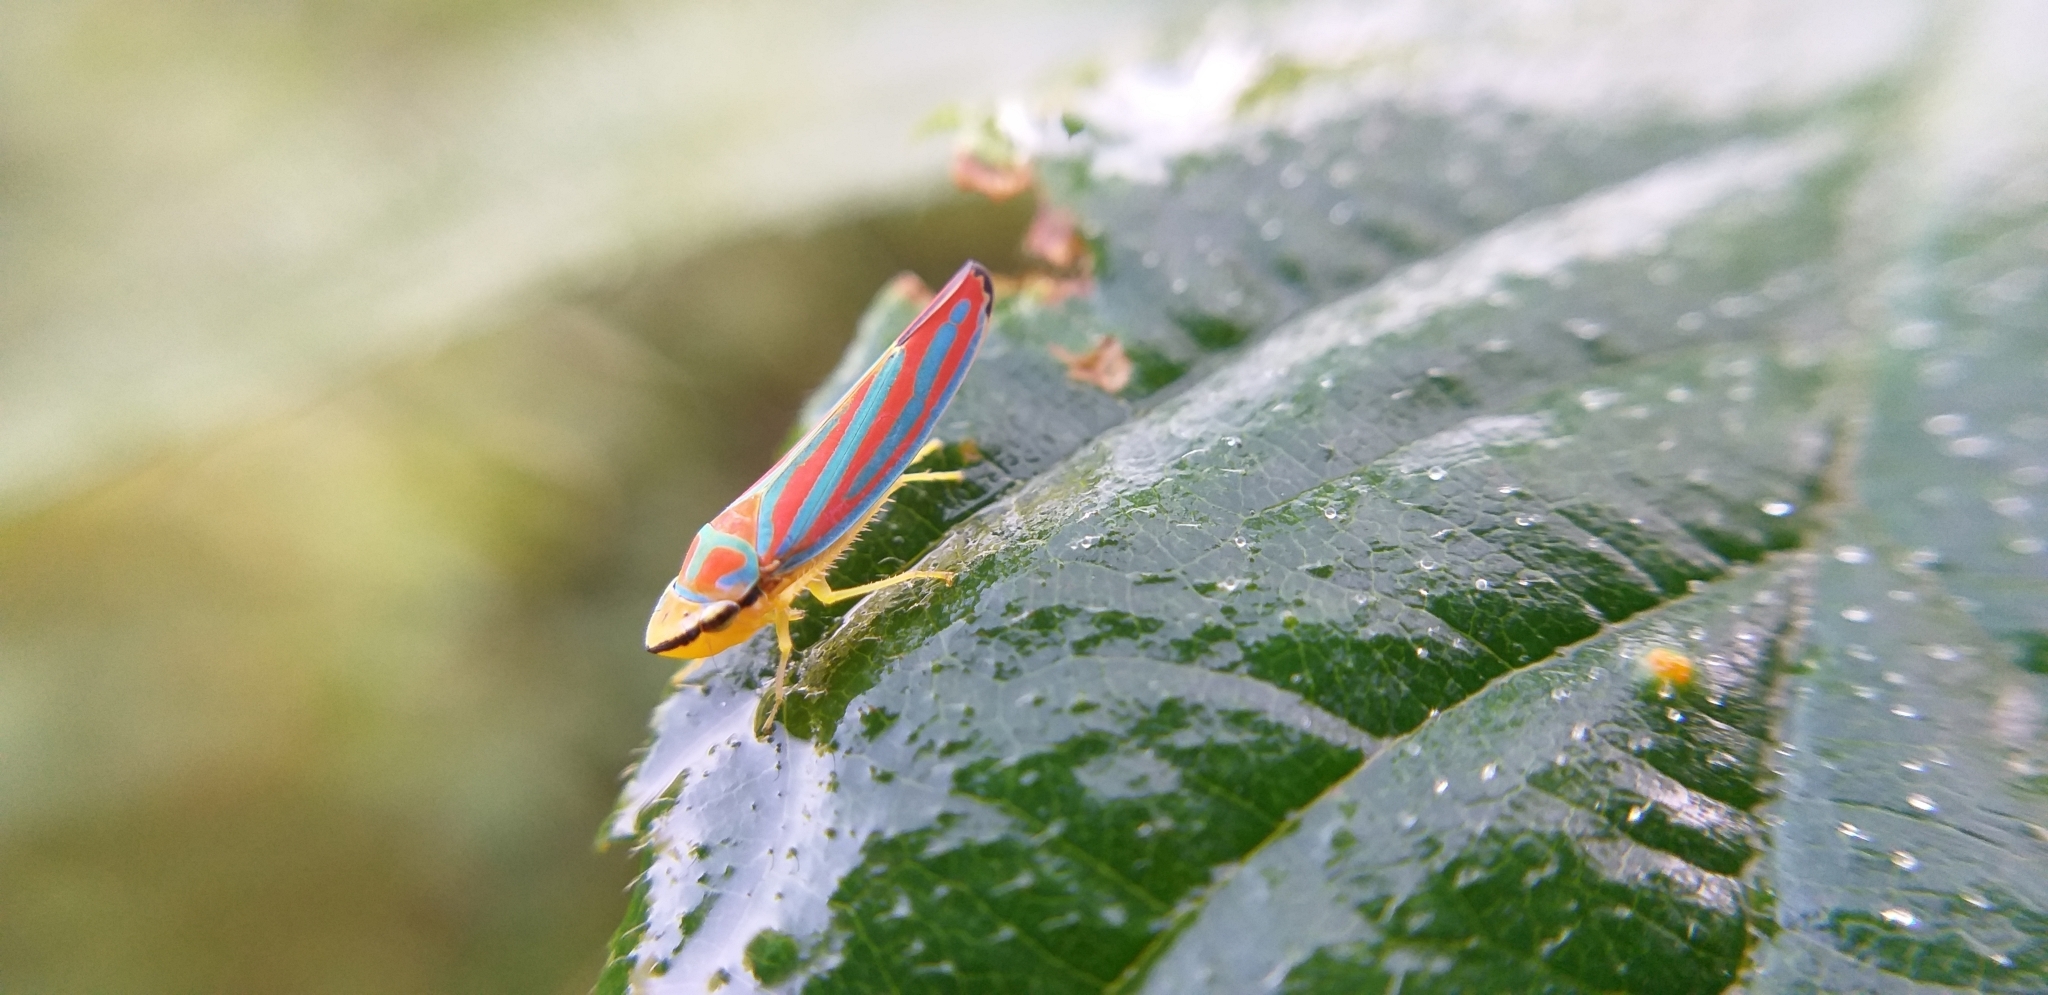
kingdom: Animalia
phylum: Arthropoda
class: Insecta
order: Hemiptera
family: Cicadellidae
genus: Graphocephala
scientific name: Graphocephala coccinea
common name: Candy-striped leafhopper
